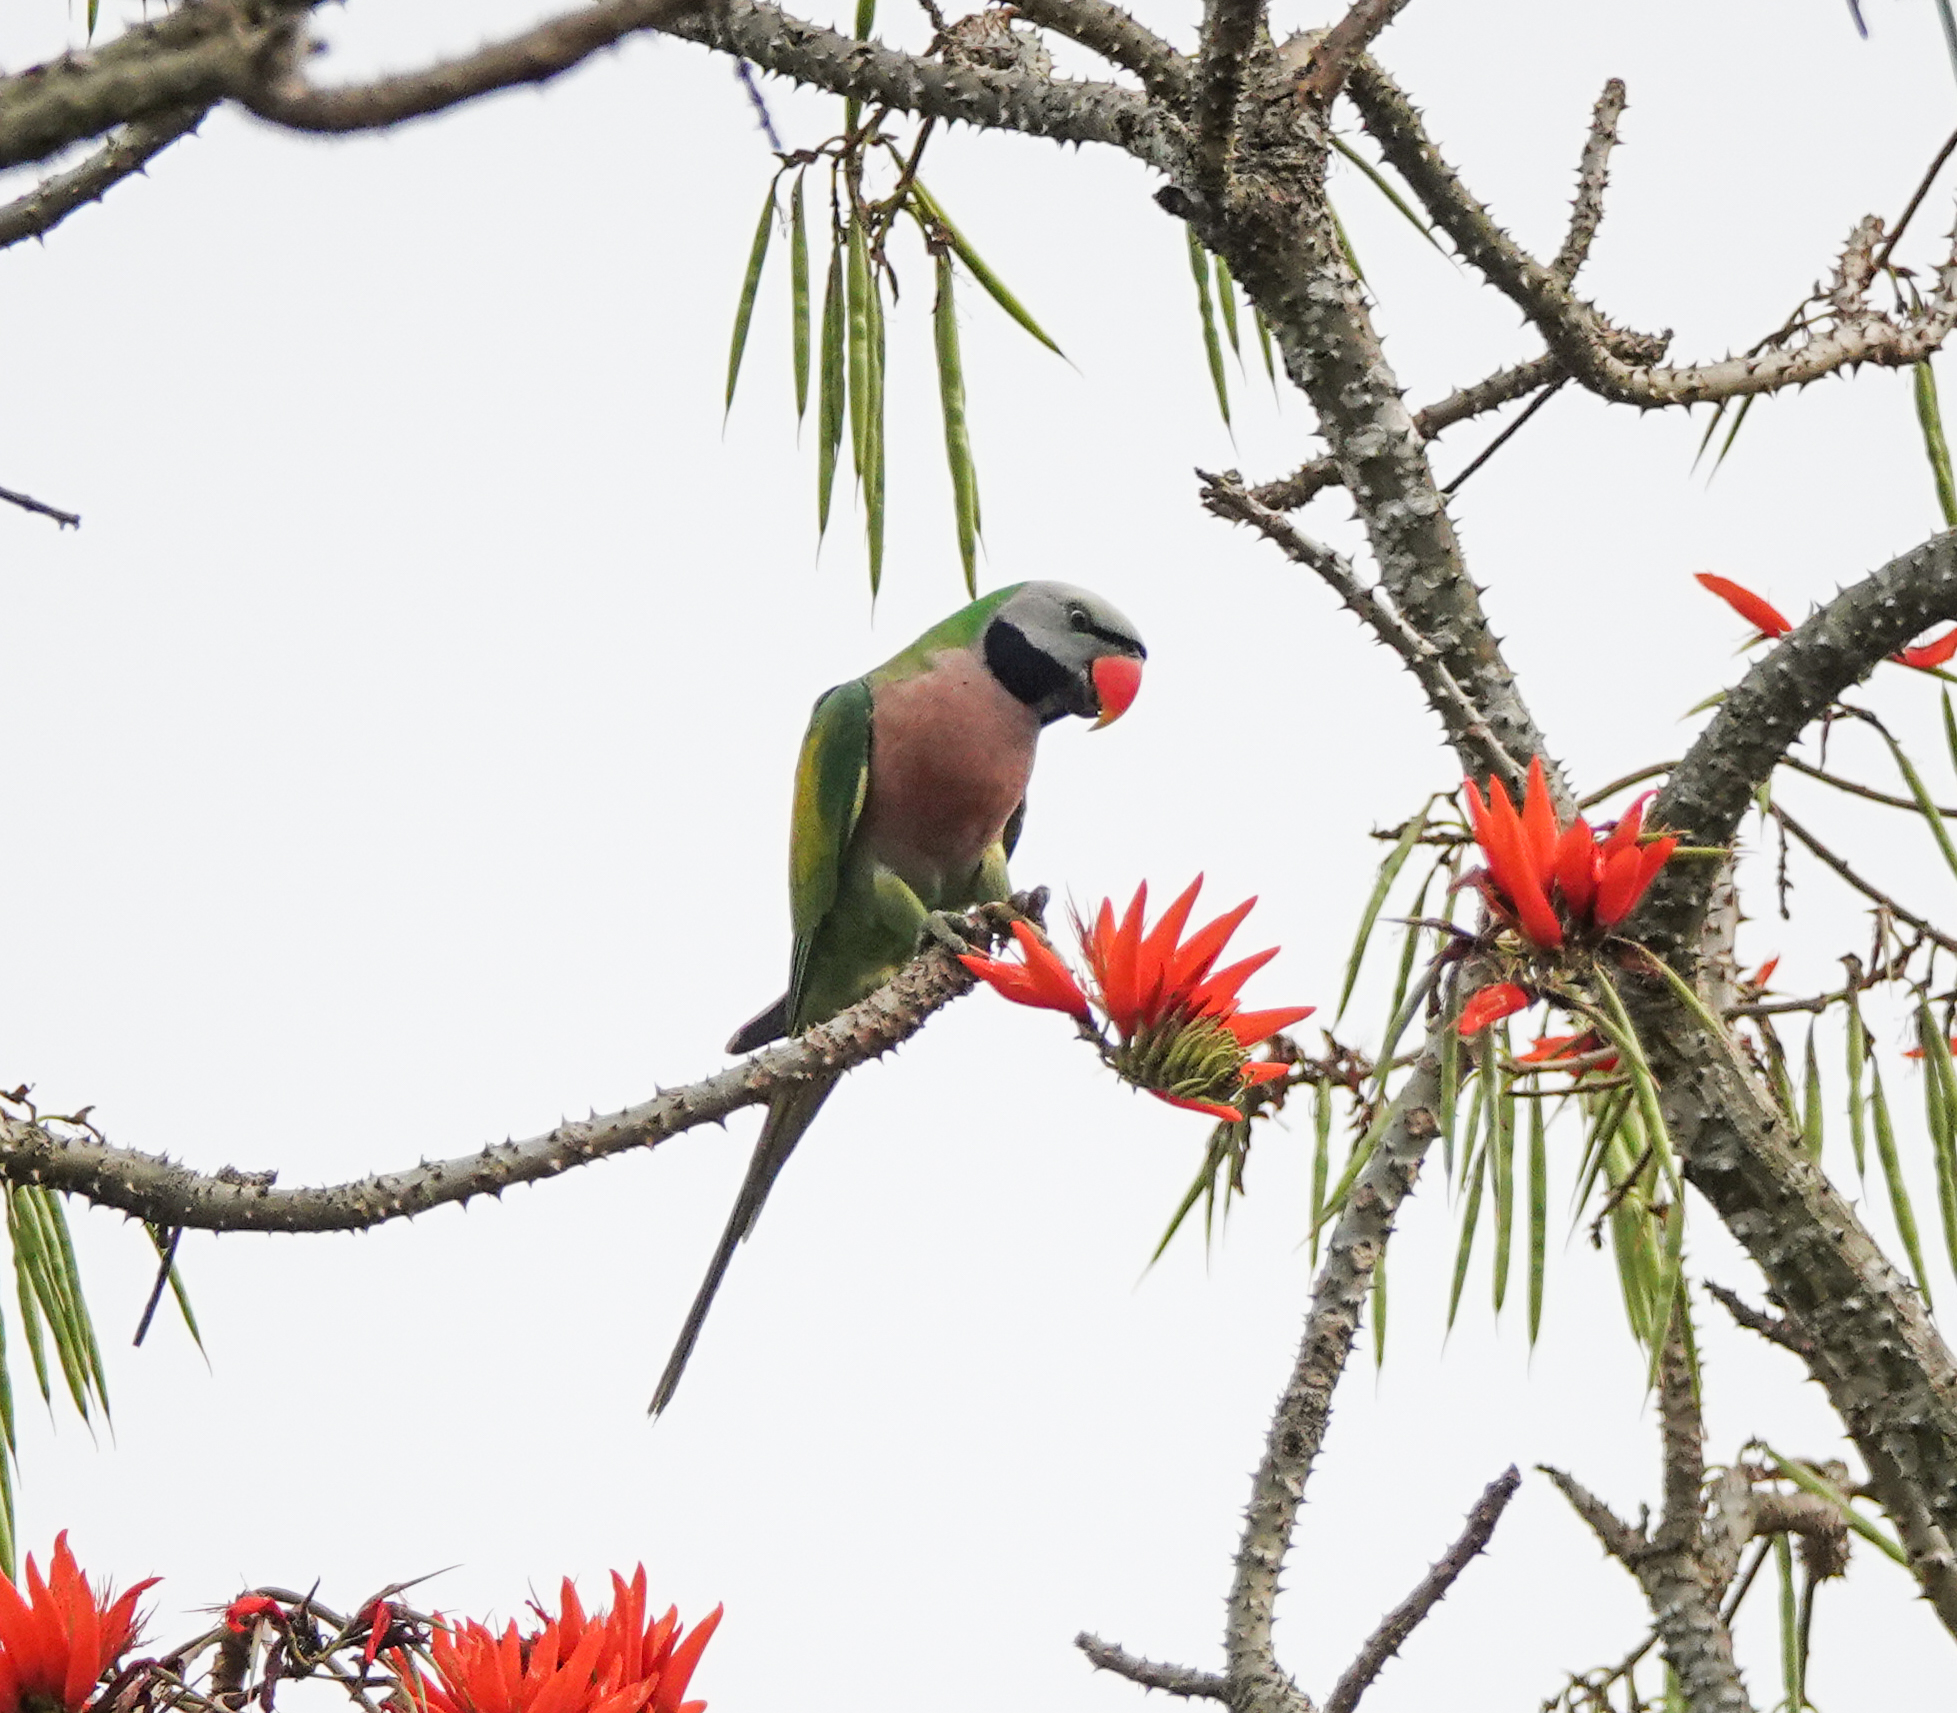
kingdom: Animalia
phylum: Chordata
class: Aves
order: Psittaciformes
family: Psittacidae
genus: Psittacula
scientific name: Psittacula alexandri
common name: Red-breasted parakeet
